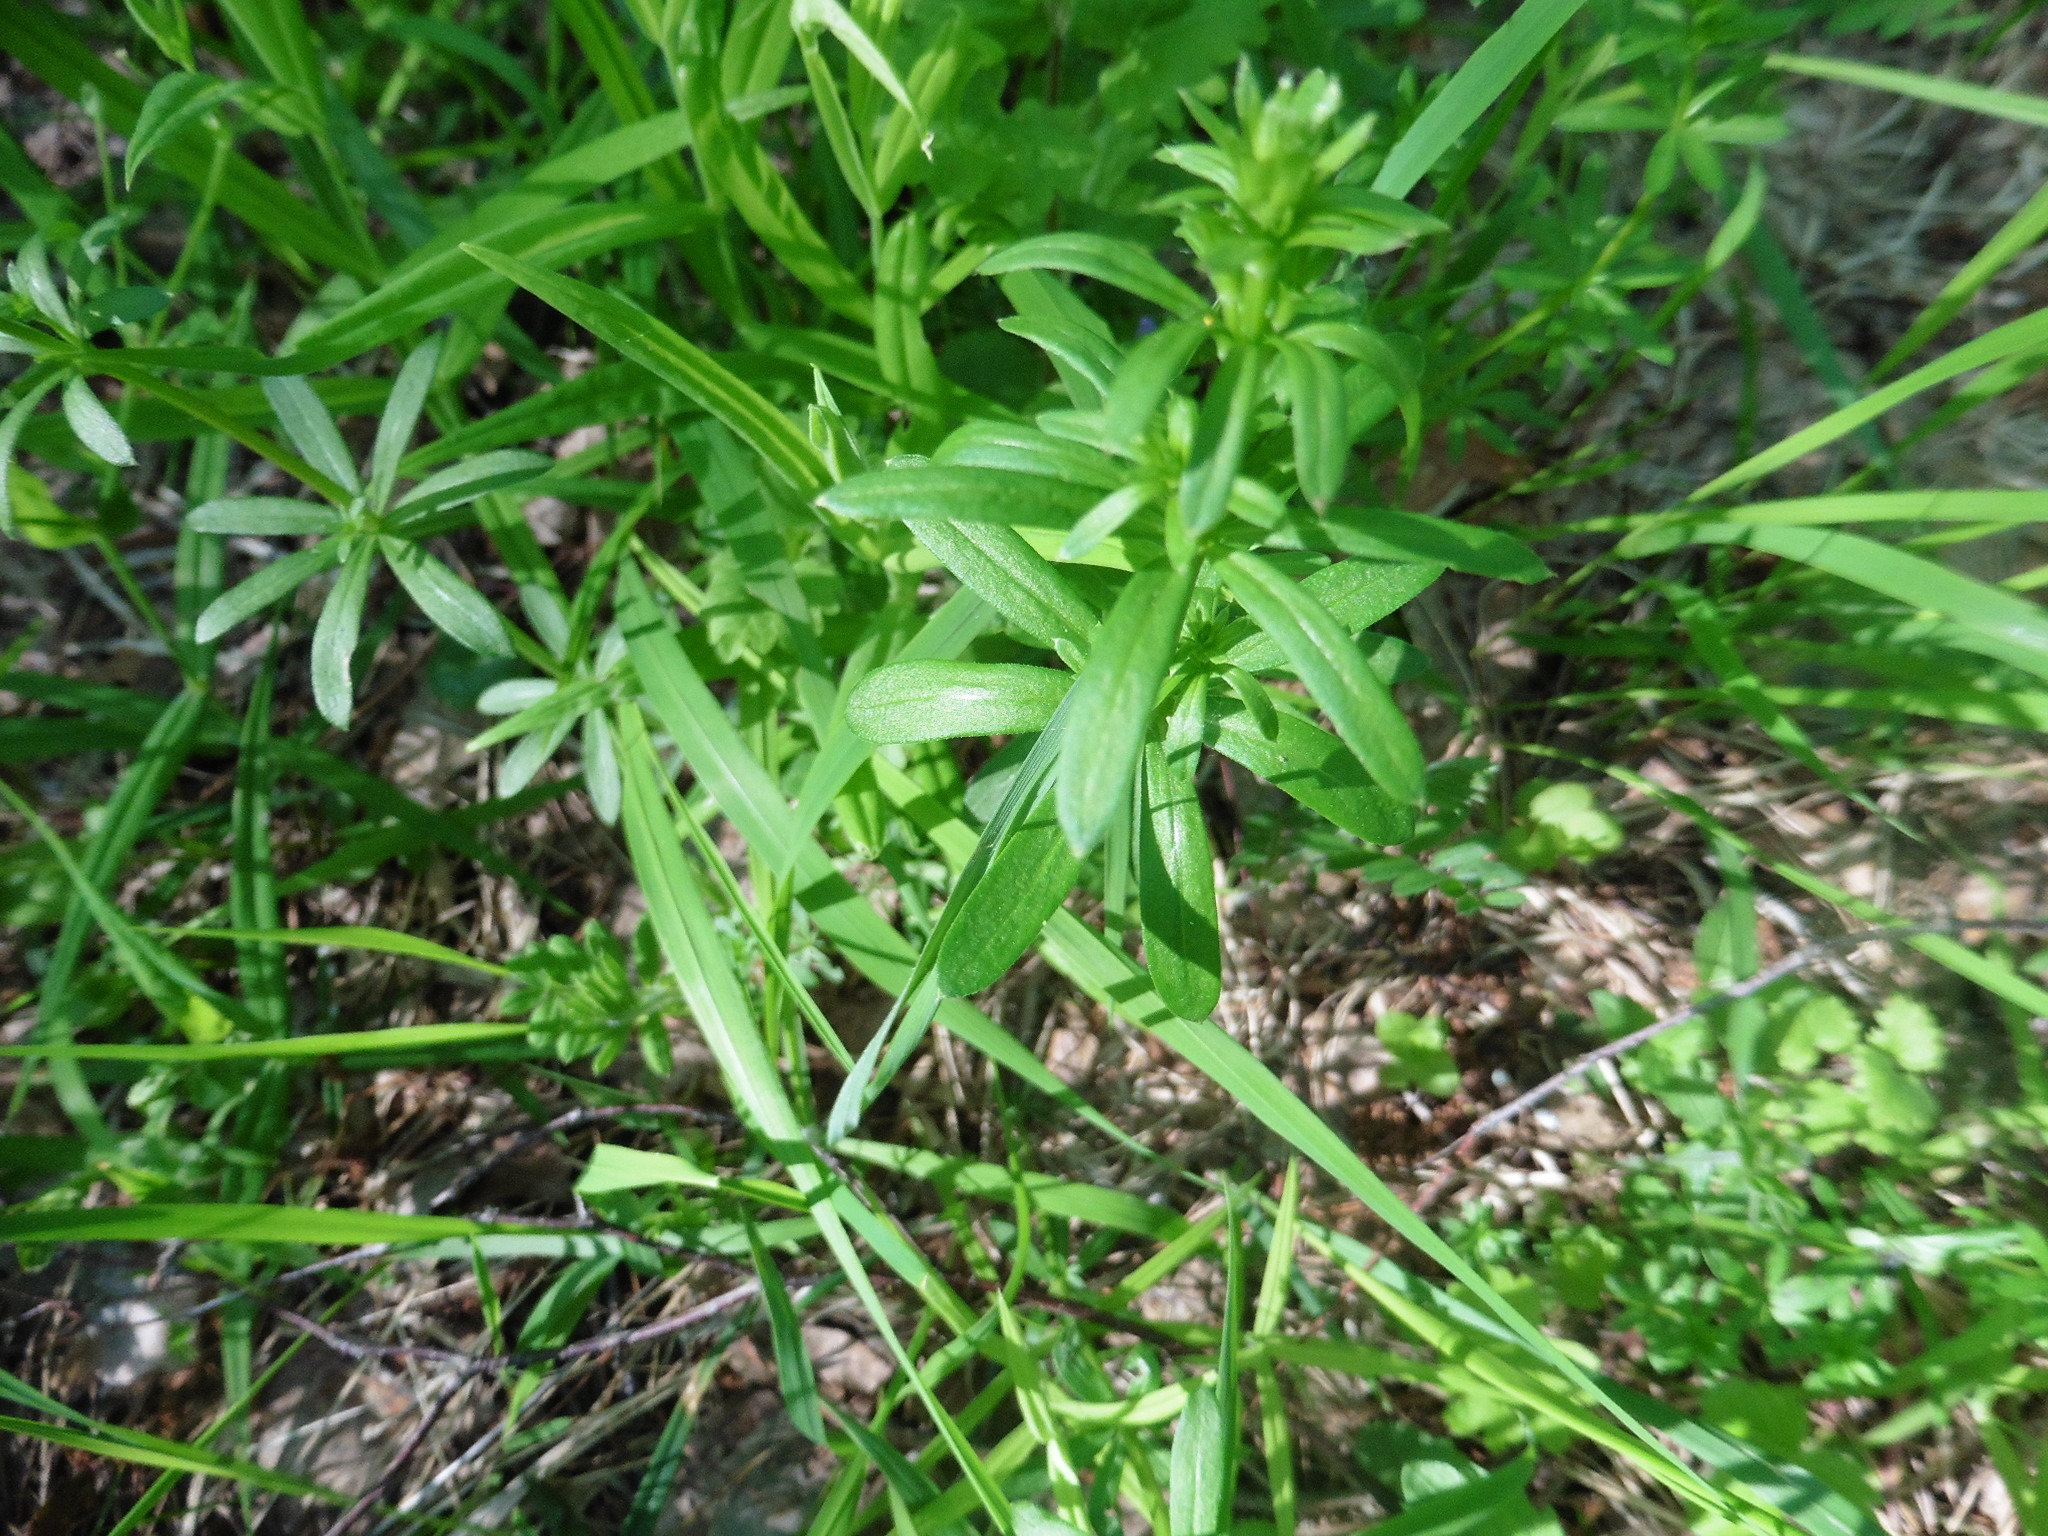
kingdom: Plantae
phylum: Tracheophyta
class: Magnoliopsida
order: Gentianales
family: Rubiaceae
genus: Galium
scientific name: Galium mollugo
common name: Hedge bedstraw
